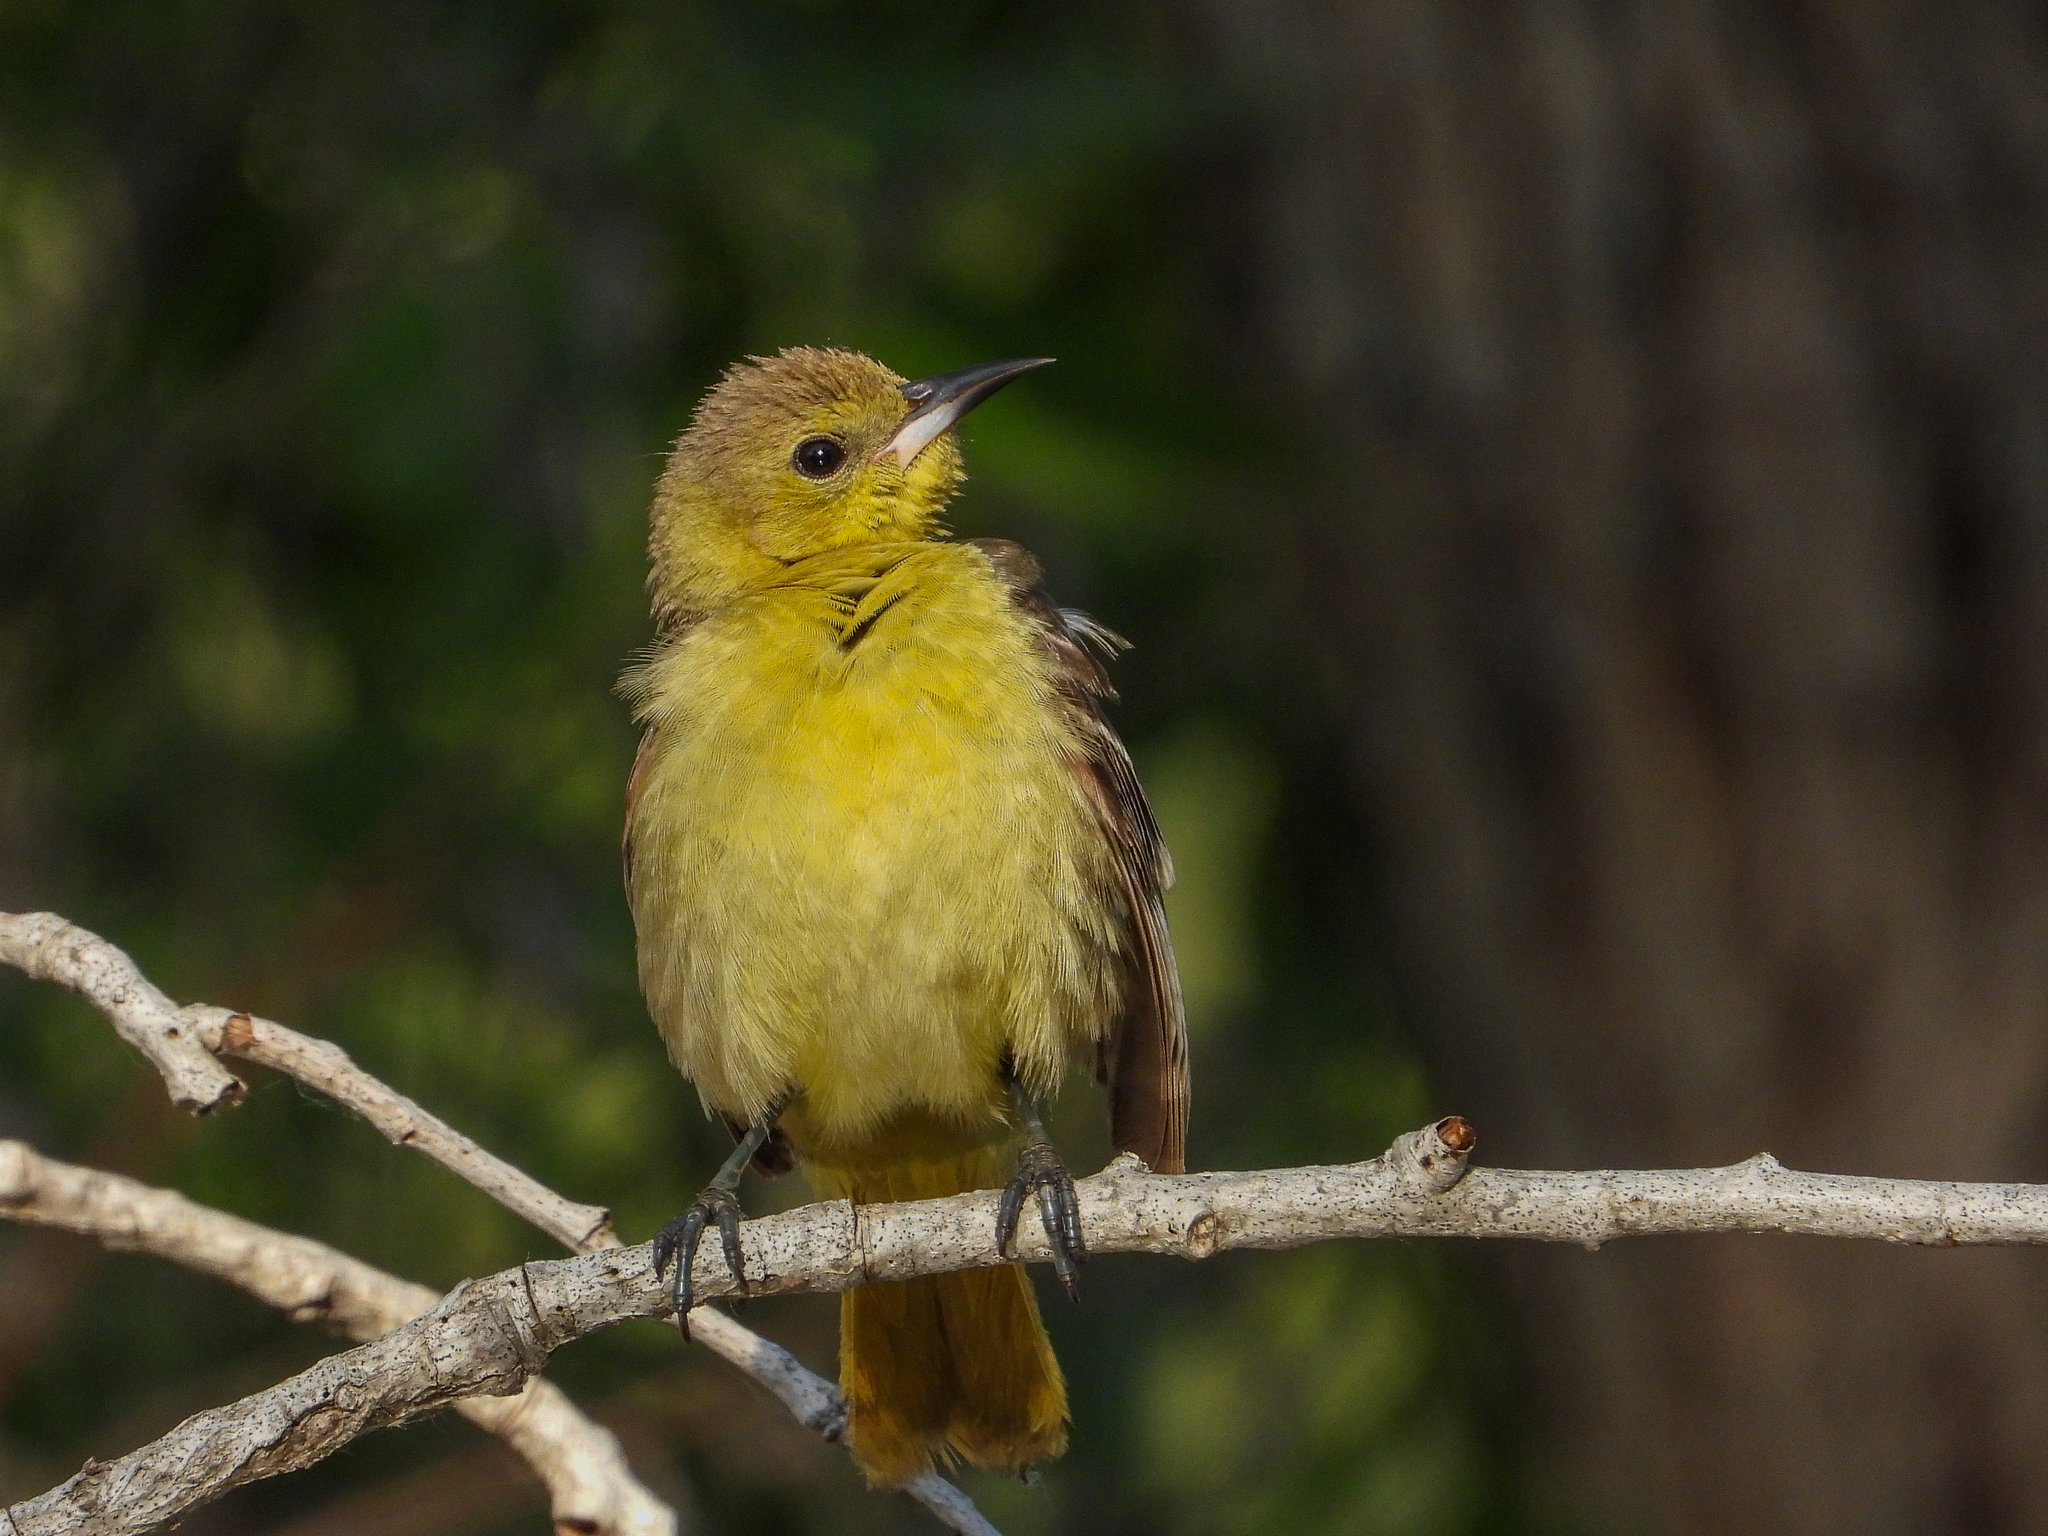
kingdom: Animalia
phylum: Chordata
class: Aves
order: Passeriformes
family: Icteridae
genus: Icterus
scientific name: Icterus cucullatus
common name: Hooded oriole
